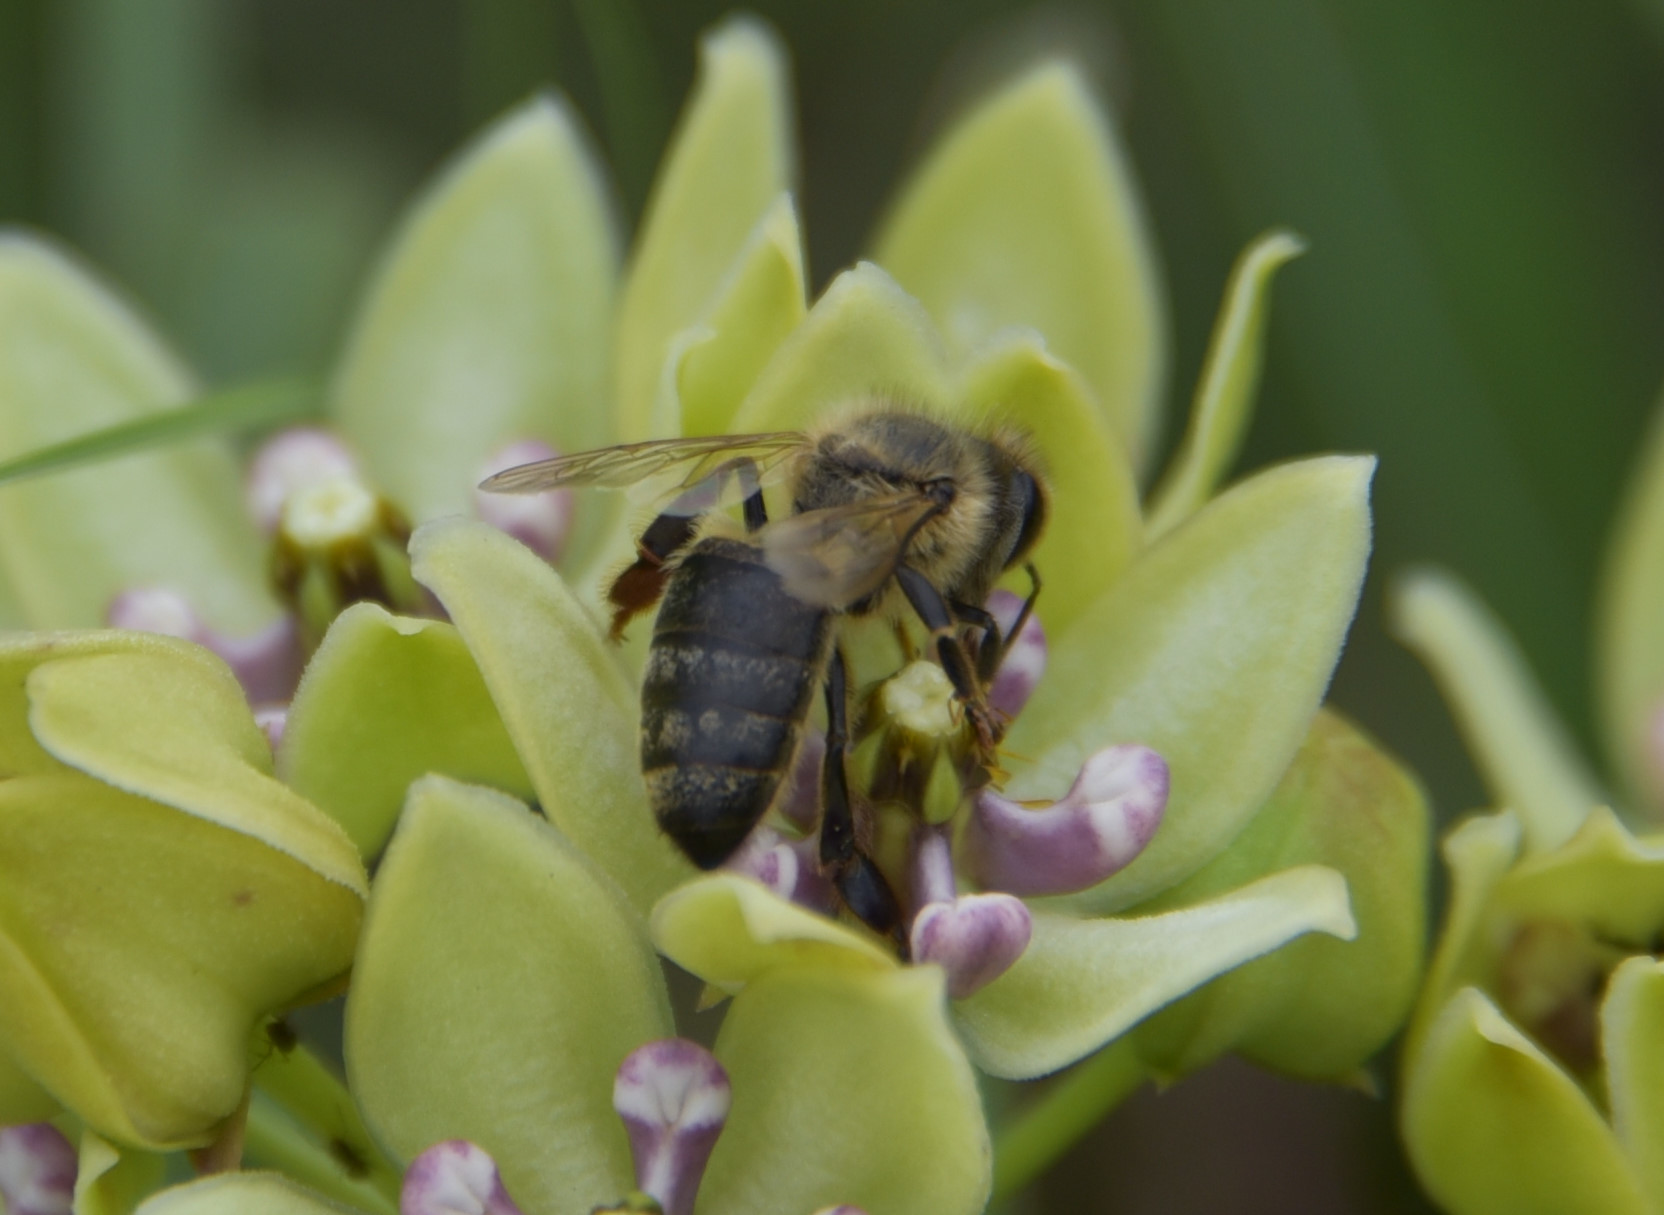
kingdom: Animalia
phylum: Arthropoda
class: Insecta
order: Hymenoptera
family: Apidae
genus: Apis
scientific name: Apis mellifera
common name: Honey bee
